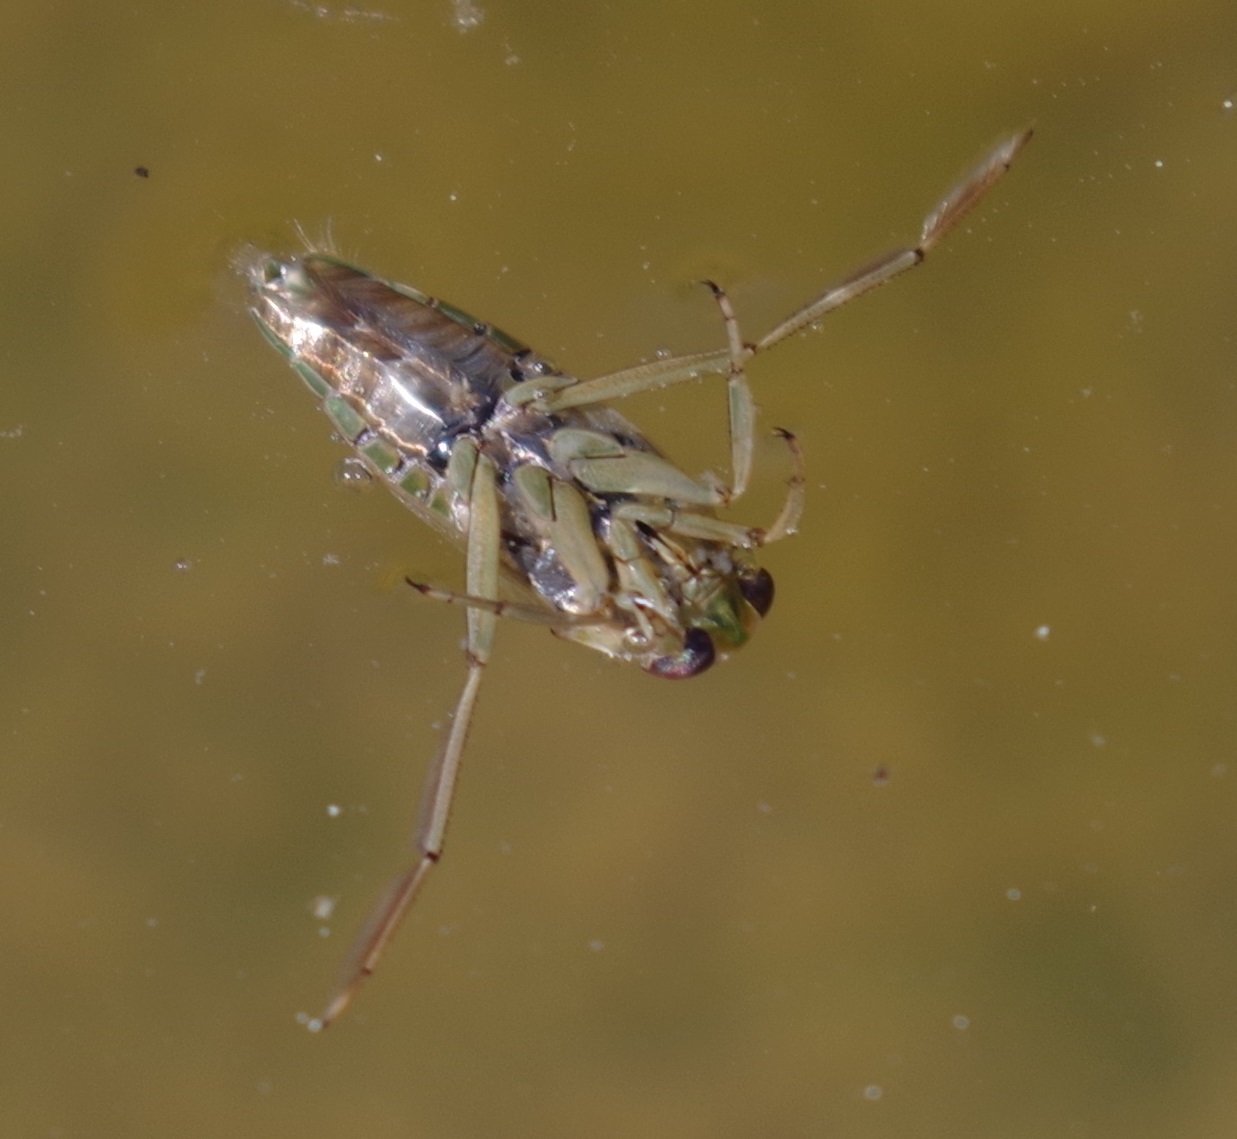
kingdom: Animalia
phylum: Arthropoda
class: Insecta
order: Hemiptera
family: Notonectidae
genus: Notonecta
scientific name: Notonecta
